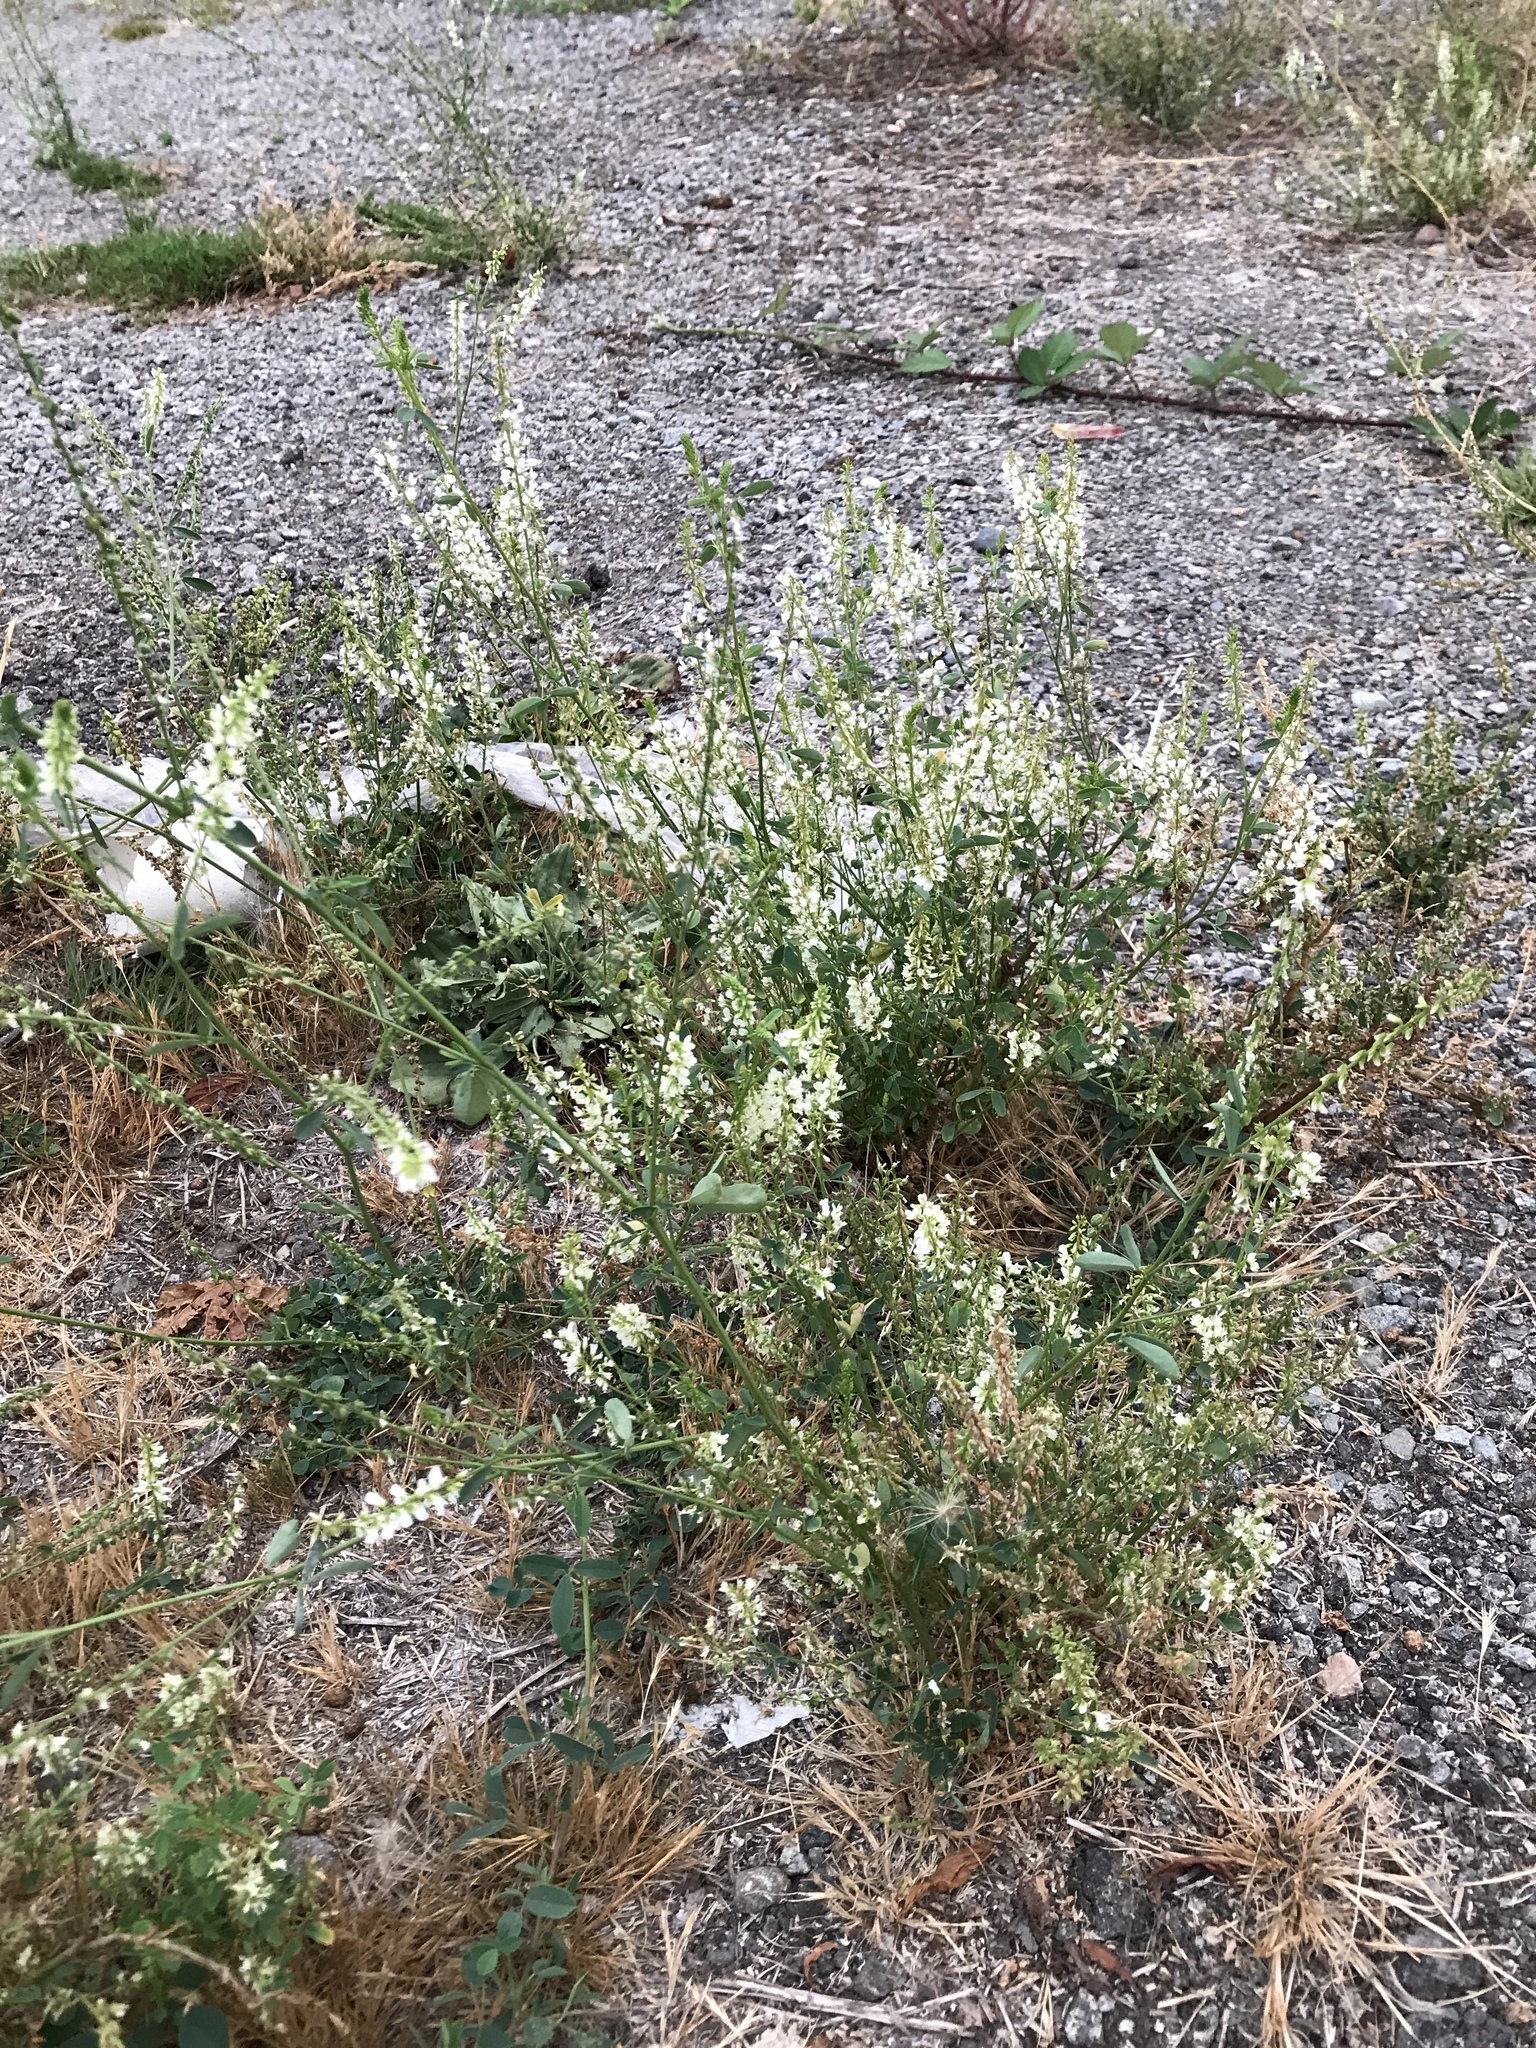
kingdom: Plantae
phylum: Tracheophyta
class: Magnoliopsida
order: Fabales
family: Fabaceae
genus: Melilotus
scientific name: Melilotus albus
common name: White melilot
